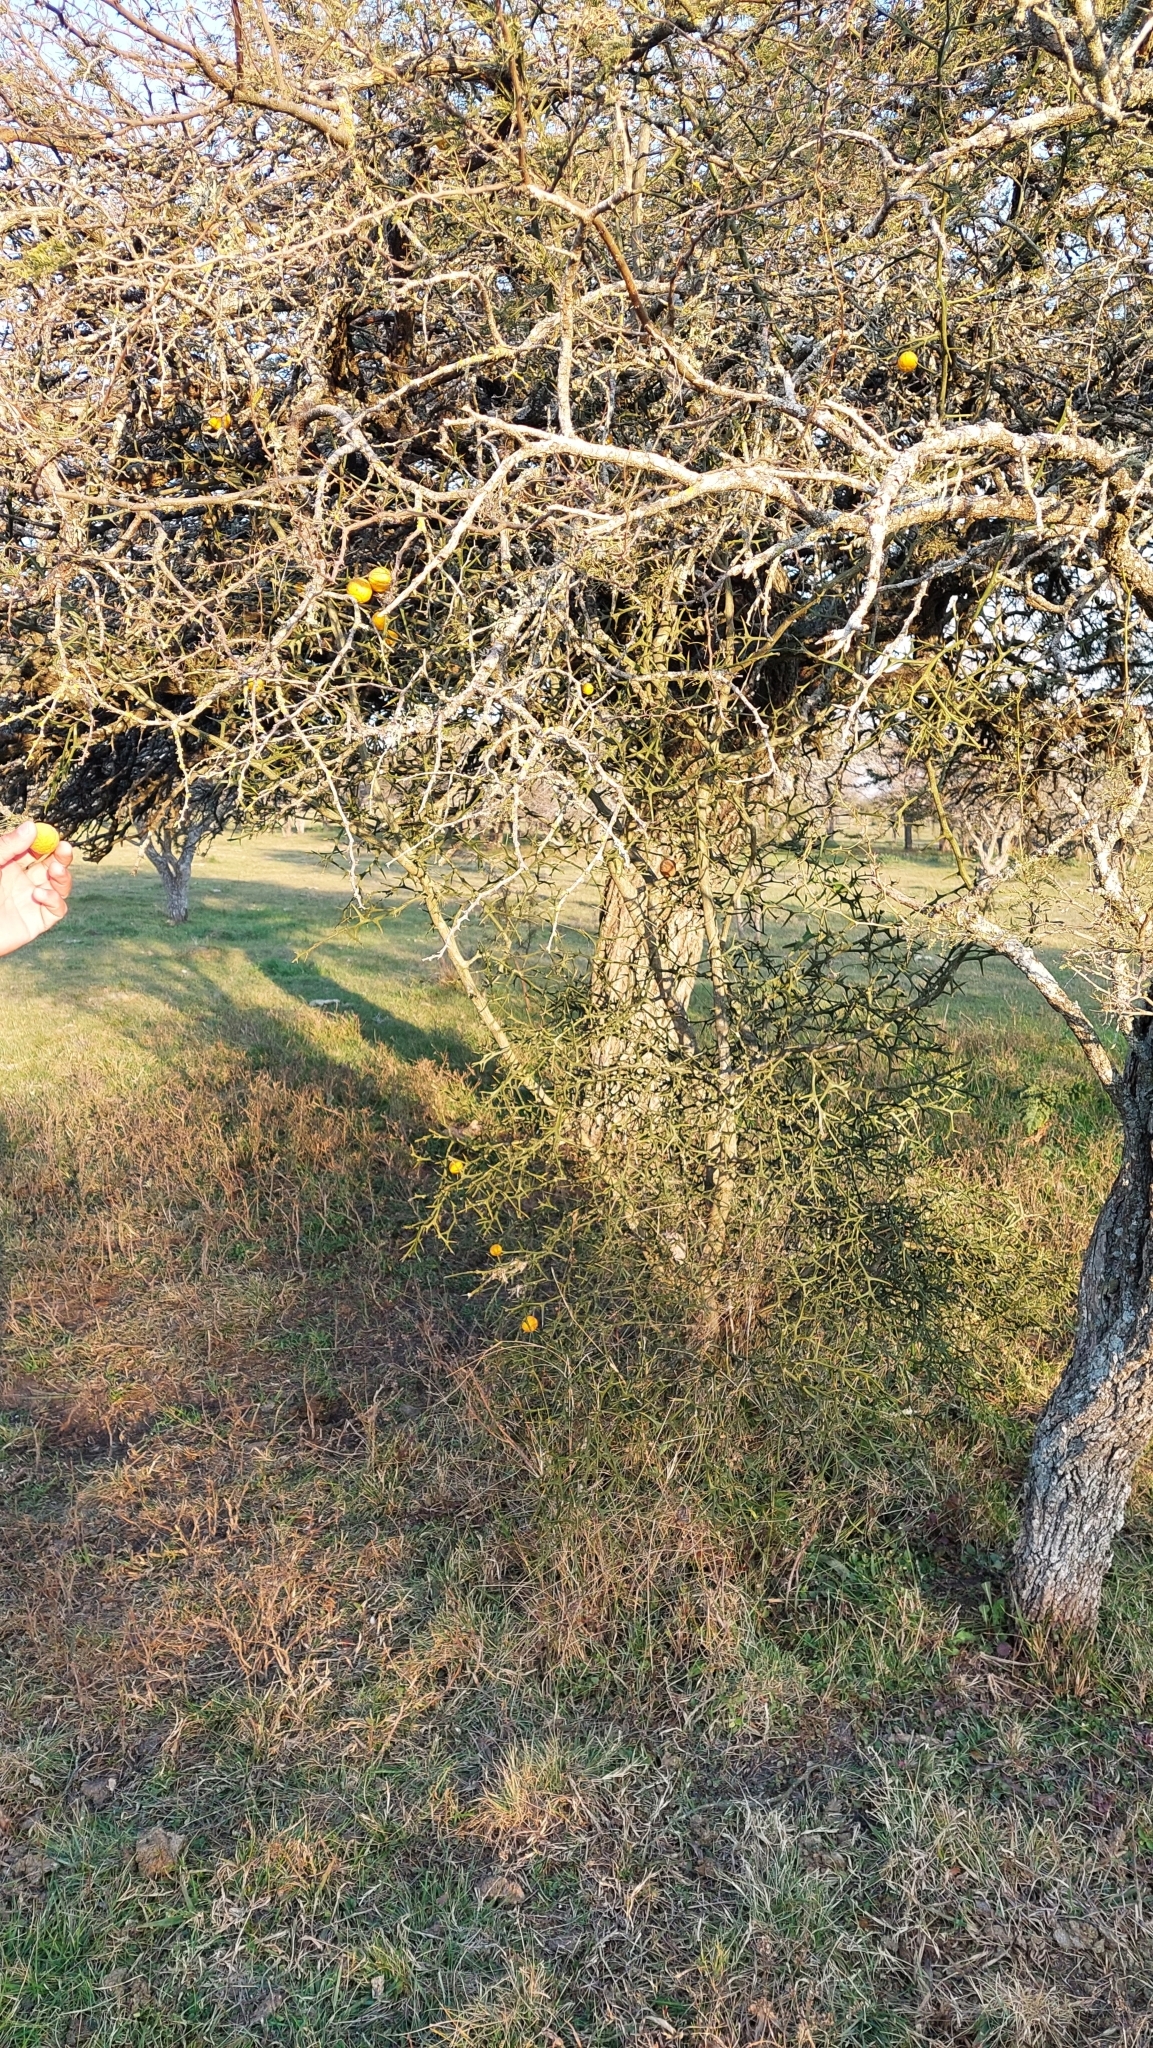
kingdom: Plantae
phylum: Tracheophyta
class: Magnoliopsida
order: Sapindales
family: Rutaceae
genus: Citrus
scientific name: Citrus trifoliata
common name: Japanese bitter-orange
